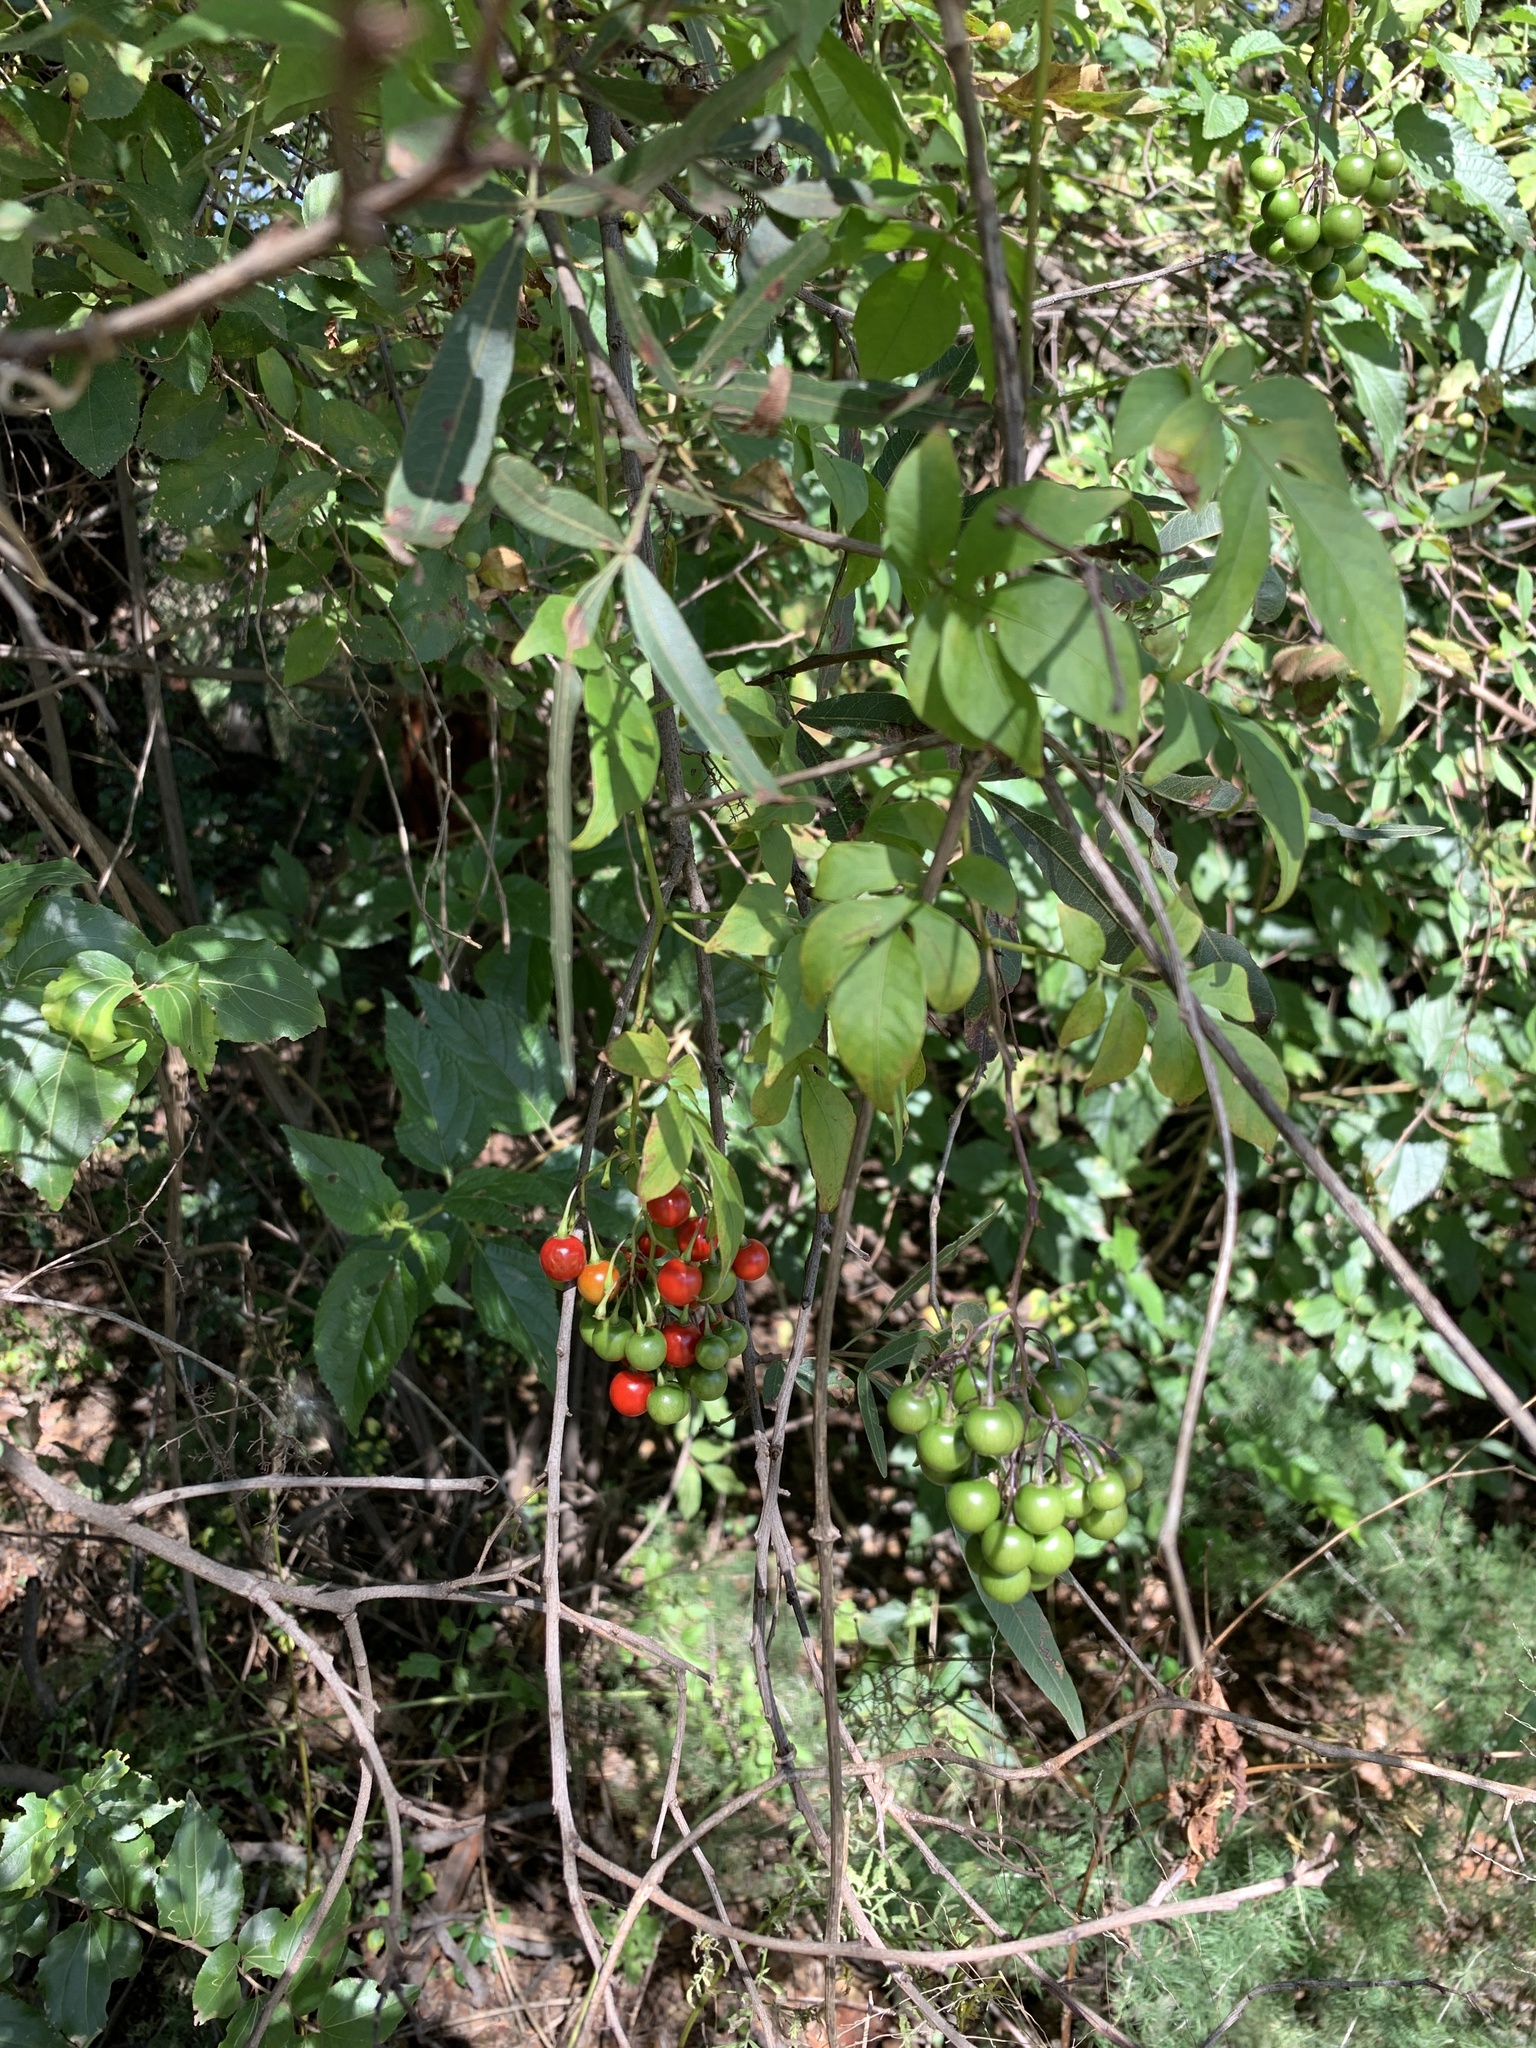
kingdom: Plantae
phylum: Tracheophyta
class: Magnoliopsida
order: Solanales
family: Solanaceae
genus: Solanum
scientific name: Solanum seaforthianum
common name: Brazilian nightshade
